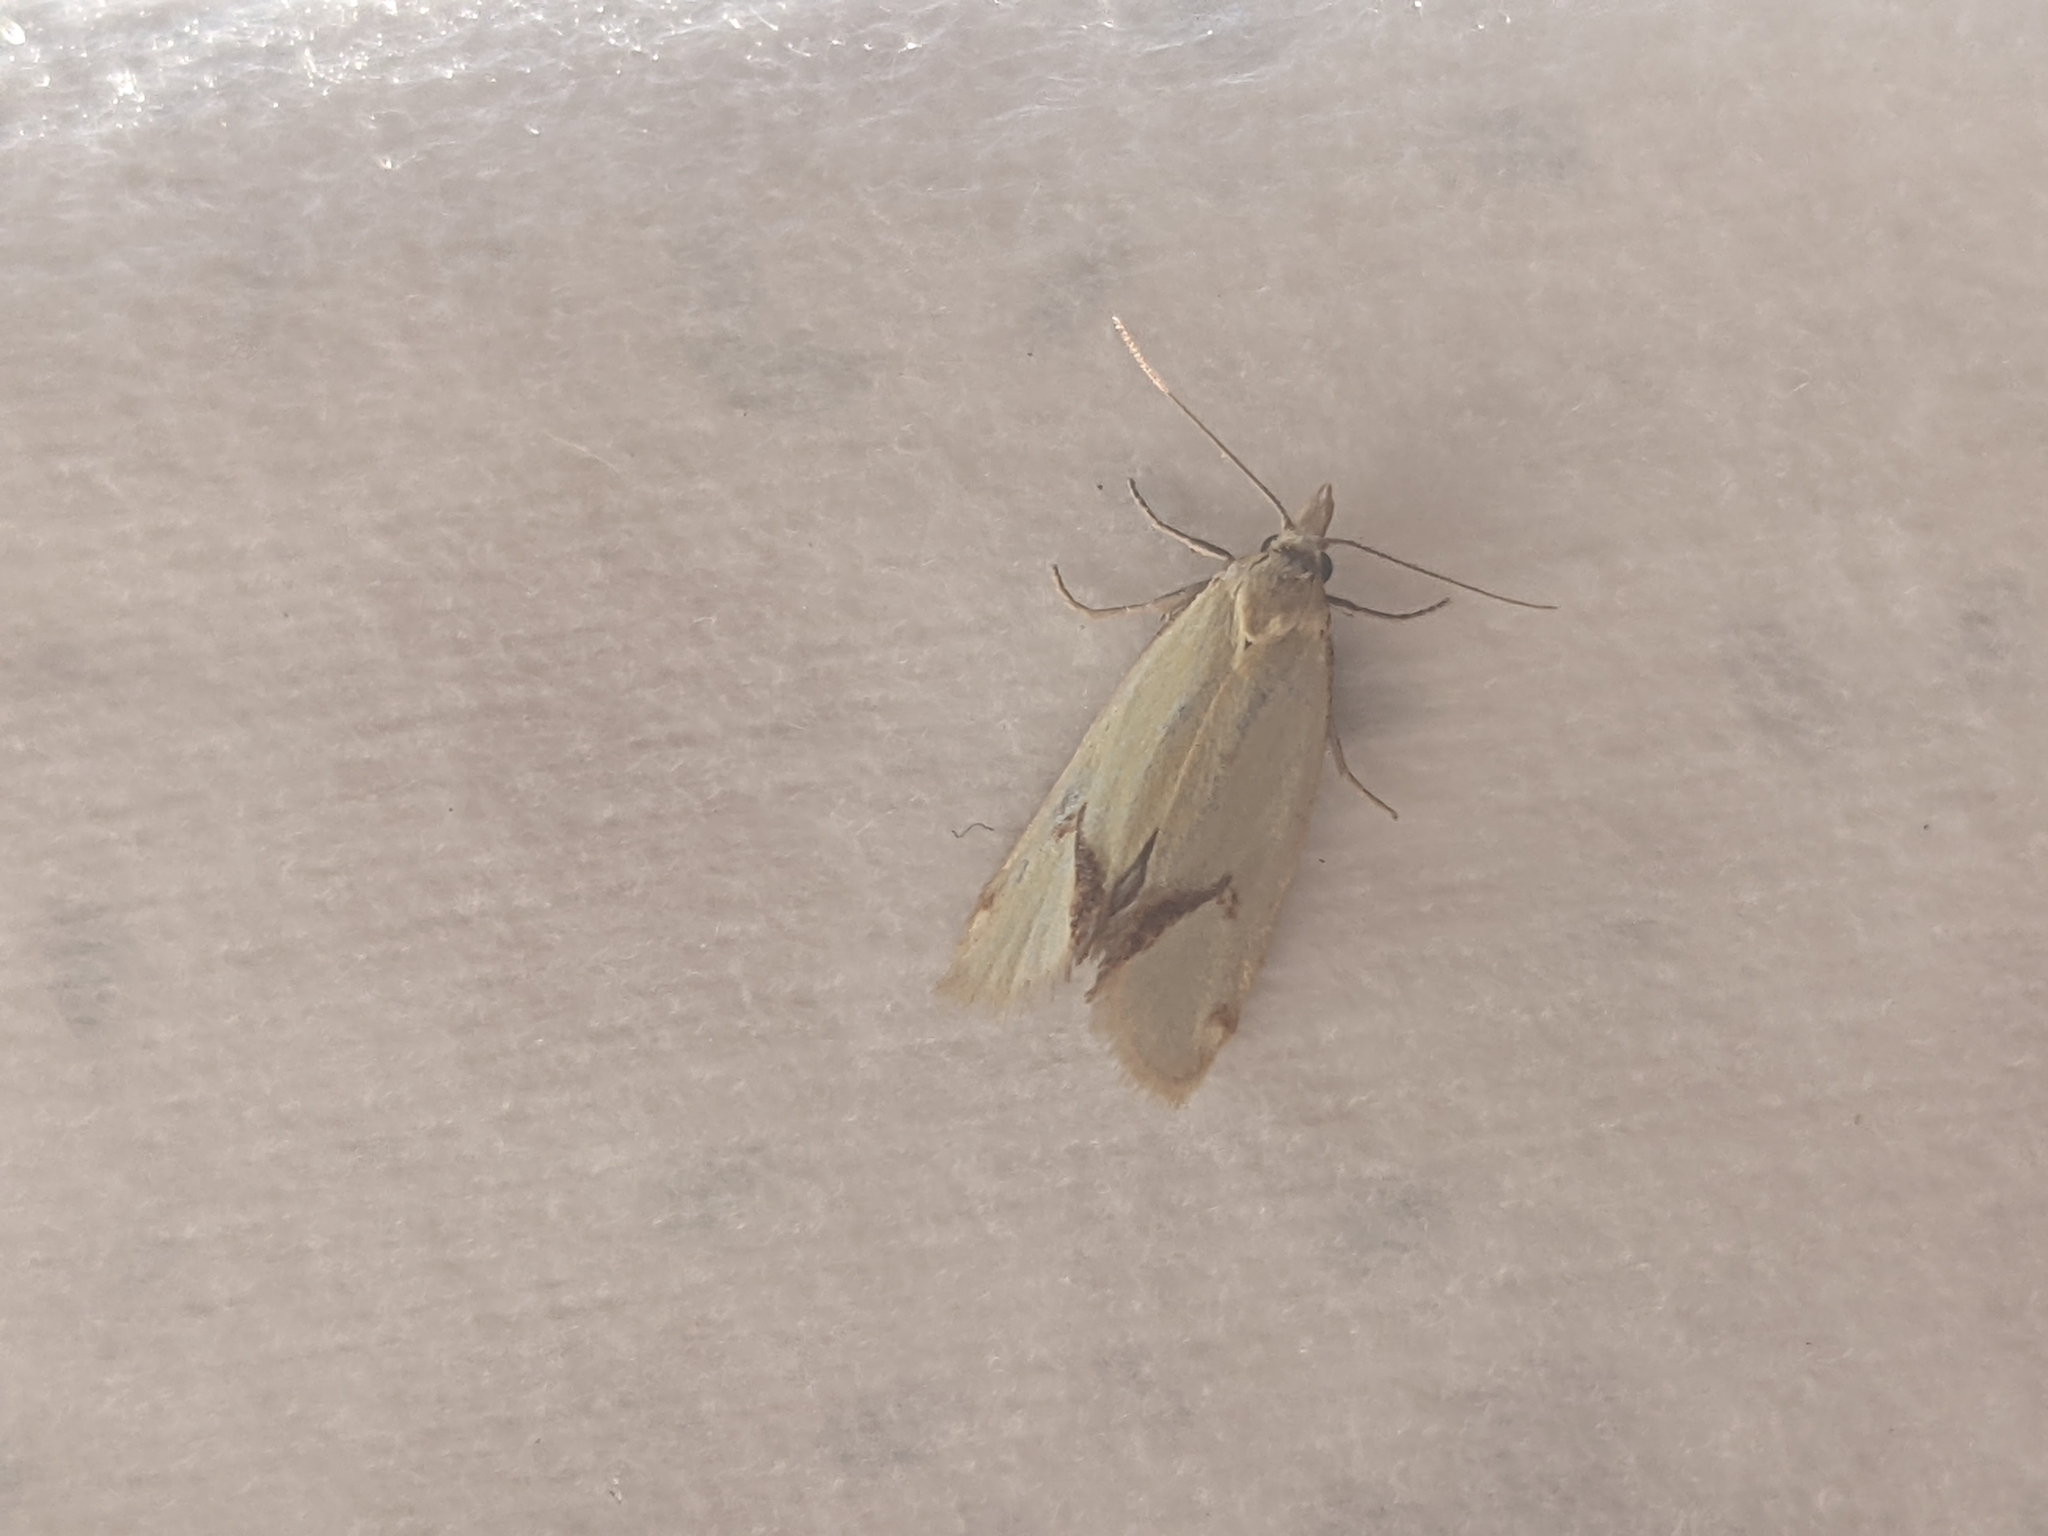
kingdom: Animalia
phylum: Arthropoda
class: Insecta
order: Lepidoptera
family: Tortricidae
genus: Agapeta
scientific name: Agapeta hamana
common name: Common yellow conch
